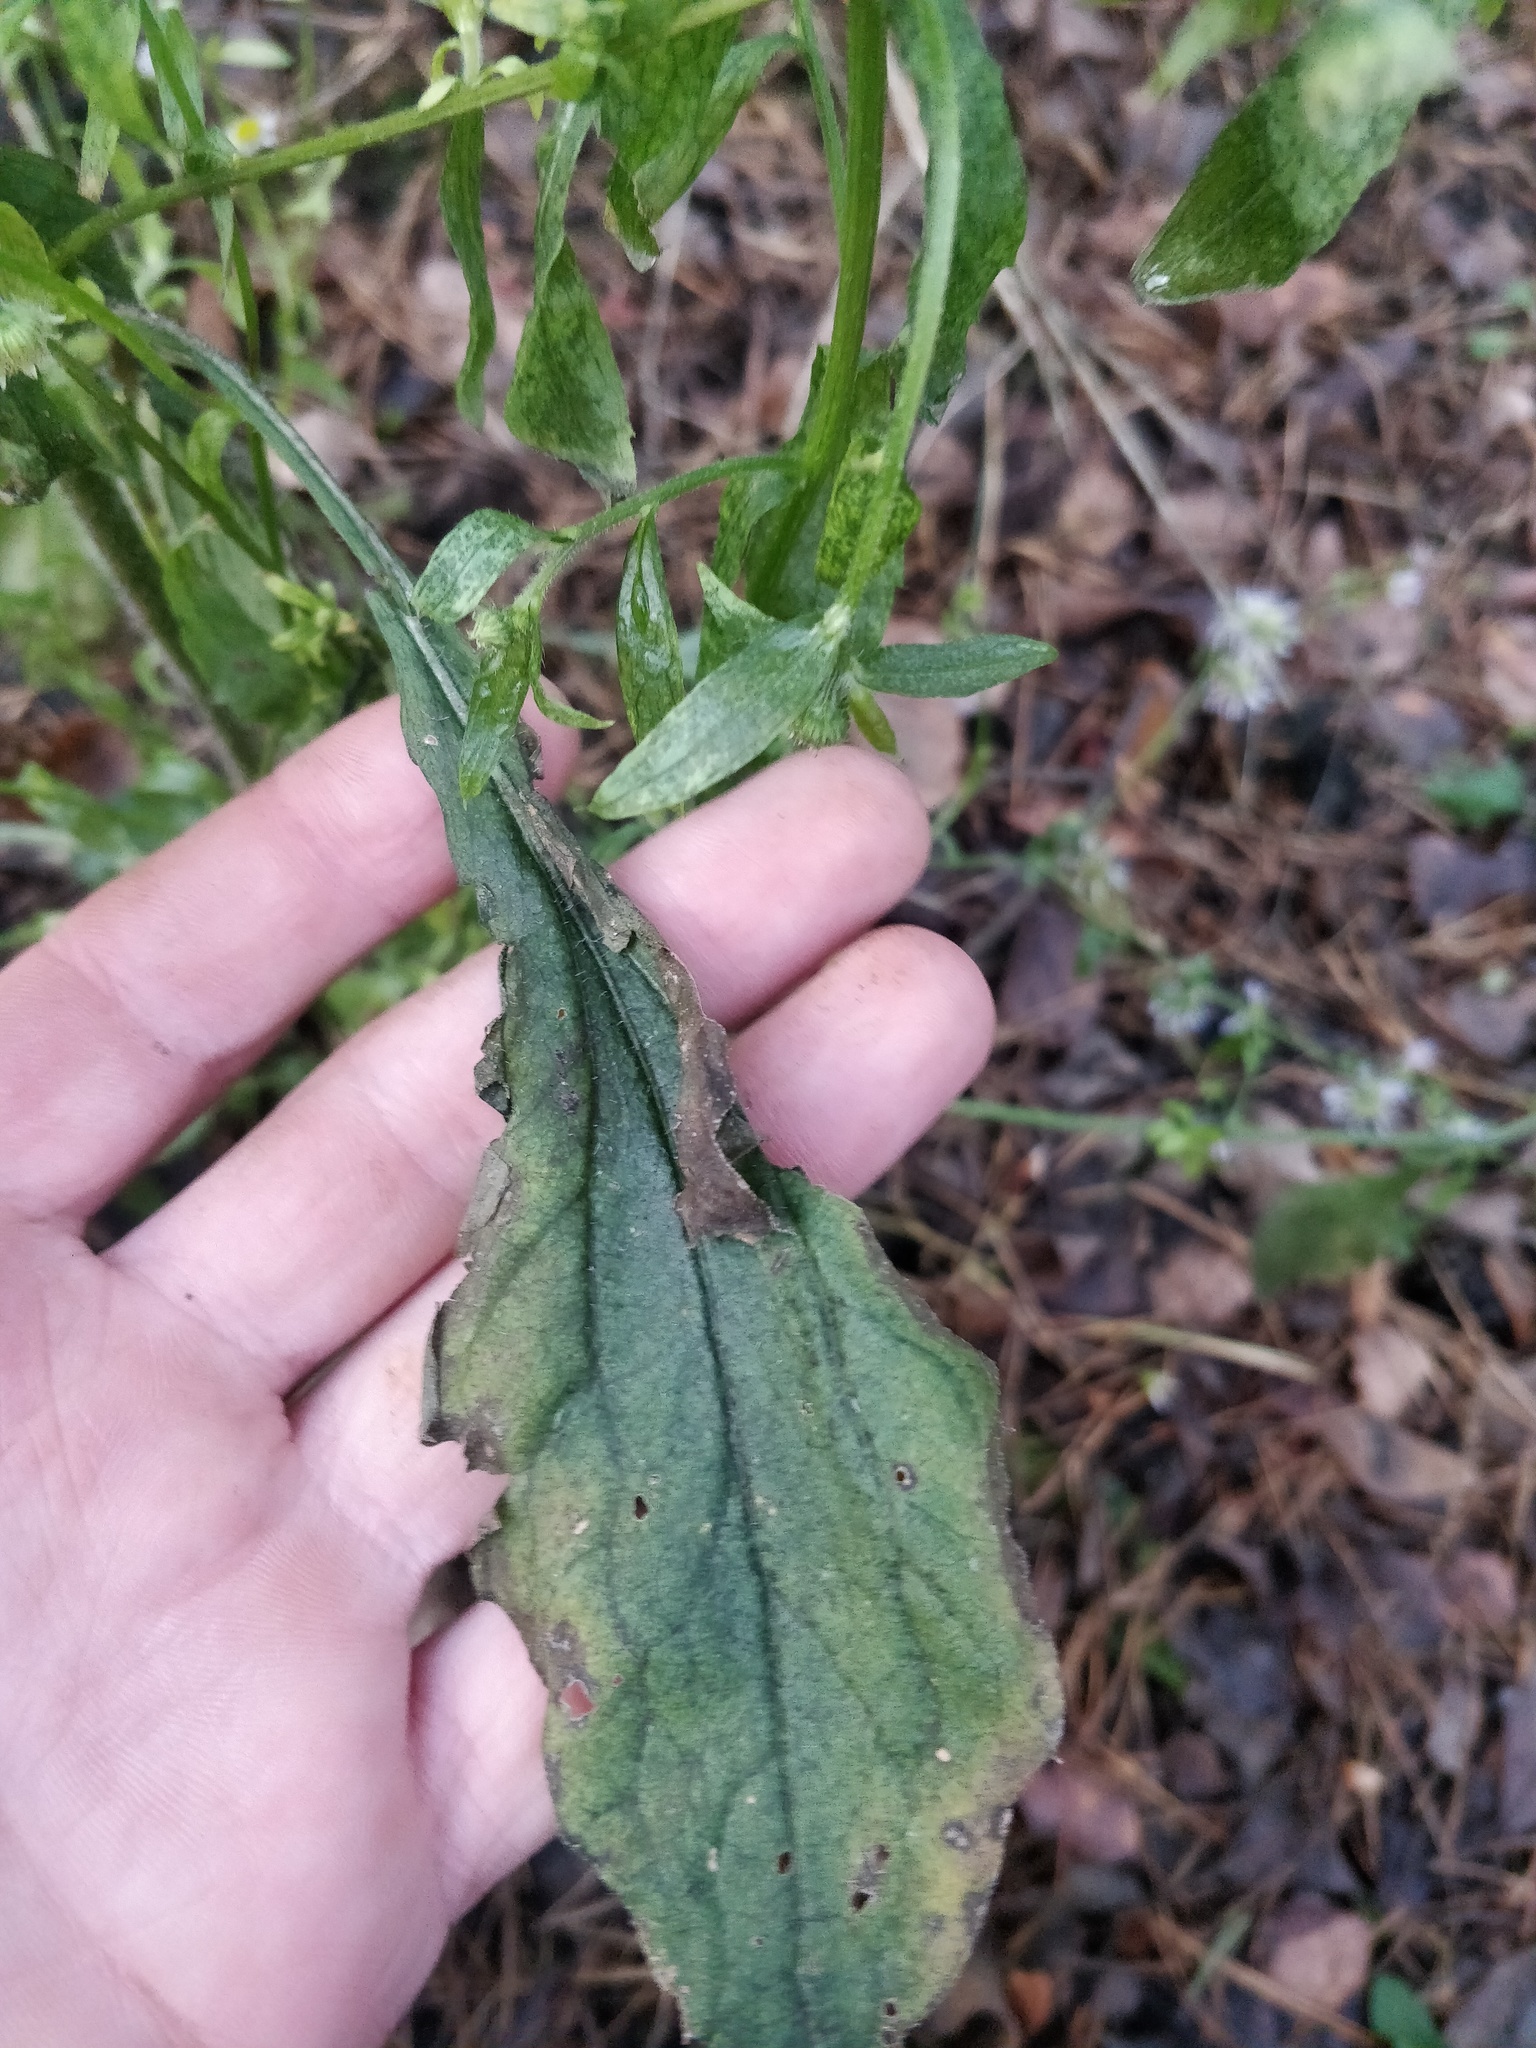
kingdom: Plantae
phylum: Tracheophyta
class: Magnoliopsida
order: Asterales
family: Asteraceae
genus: Erigeron
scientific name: Erigeron annuus
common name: Tall fleabane
